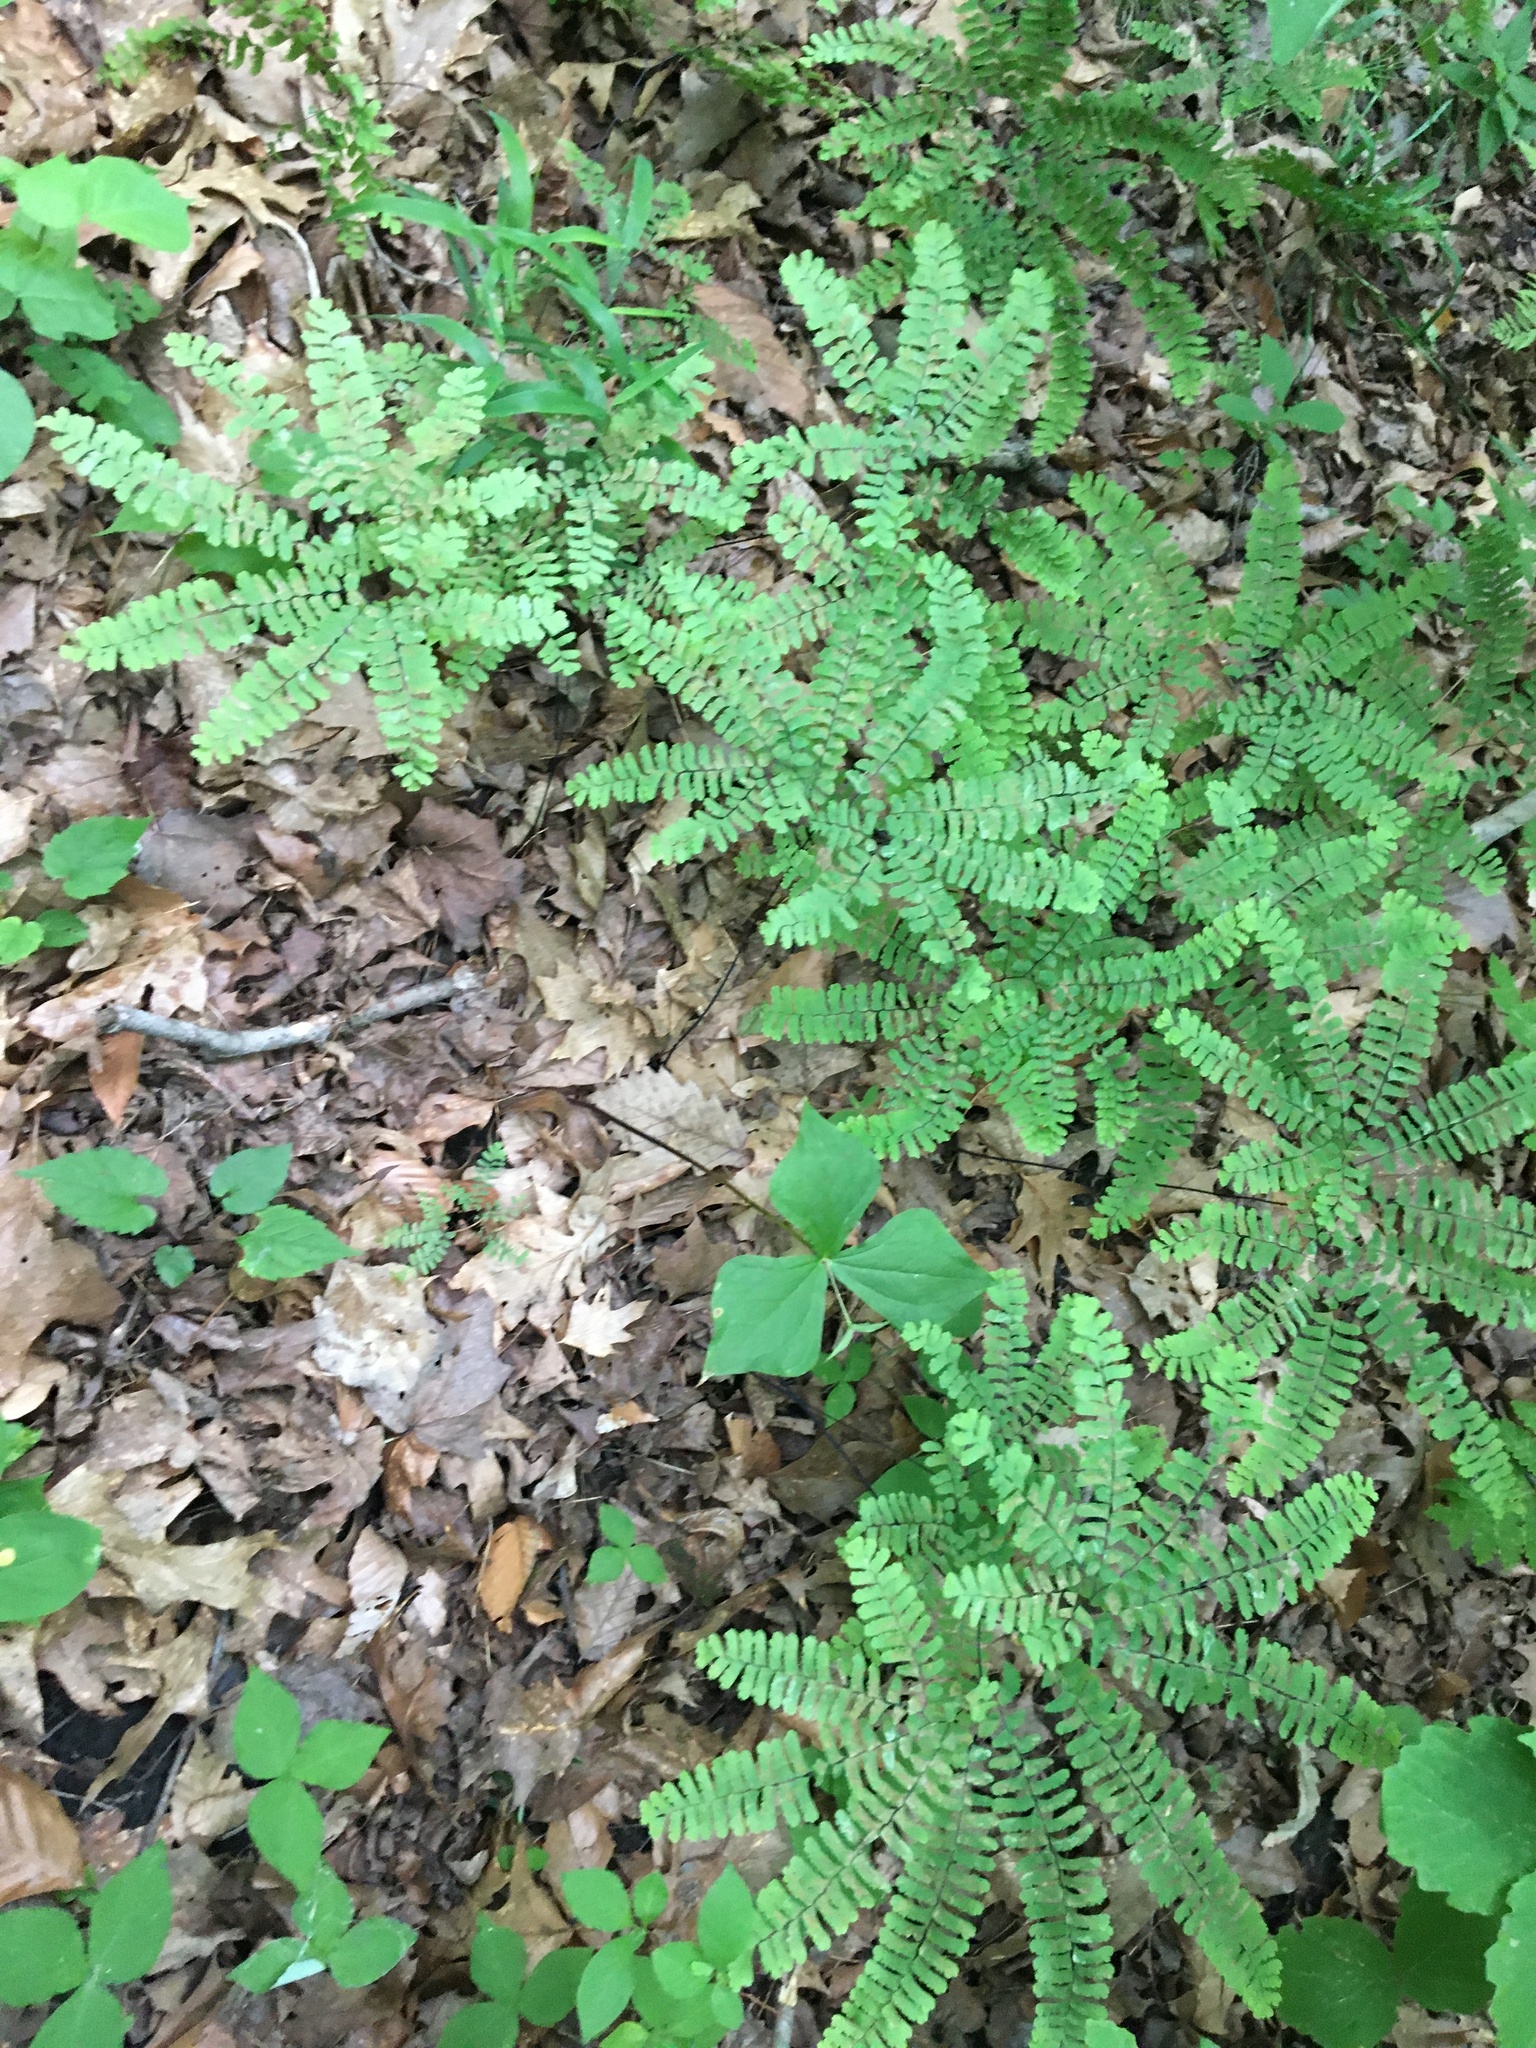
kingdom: Plantae
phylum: Tracheophyta
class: Polypodiopsida
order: Polypodiales
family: Pteridaceae
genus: Adiantum
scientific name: Adiantum pedatum
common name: Five-finger fern
